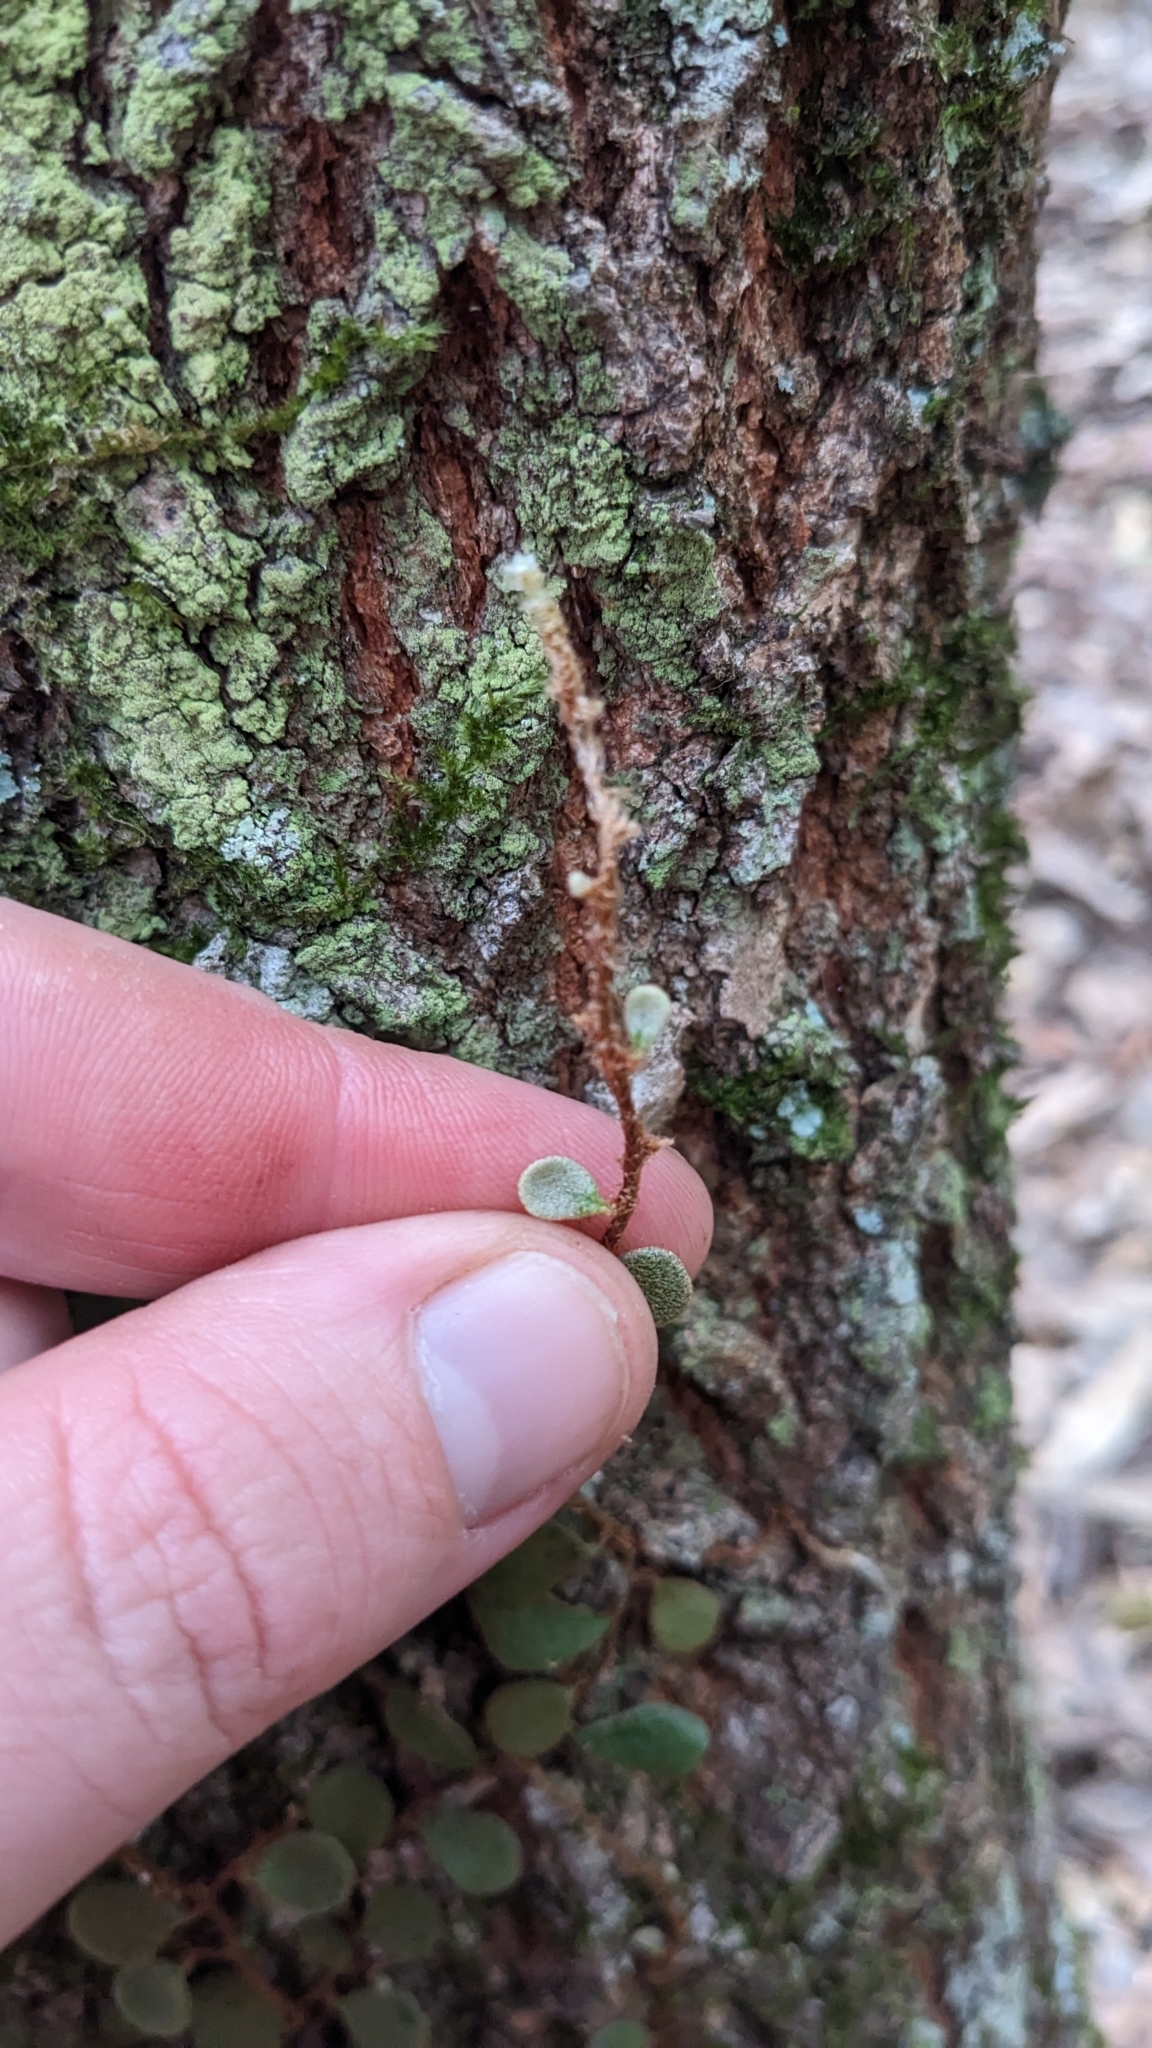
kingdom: Plantae
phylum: Tracheophyta
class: Polypodiopsida
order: Polypodiales
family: Polypodiaceae
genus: Pyrrosia
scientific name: Pyrrosia rupestris
